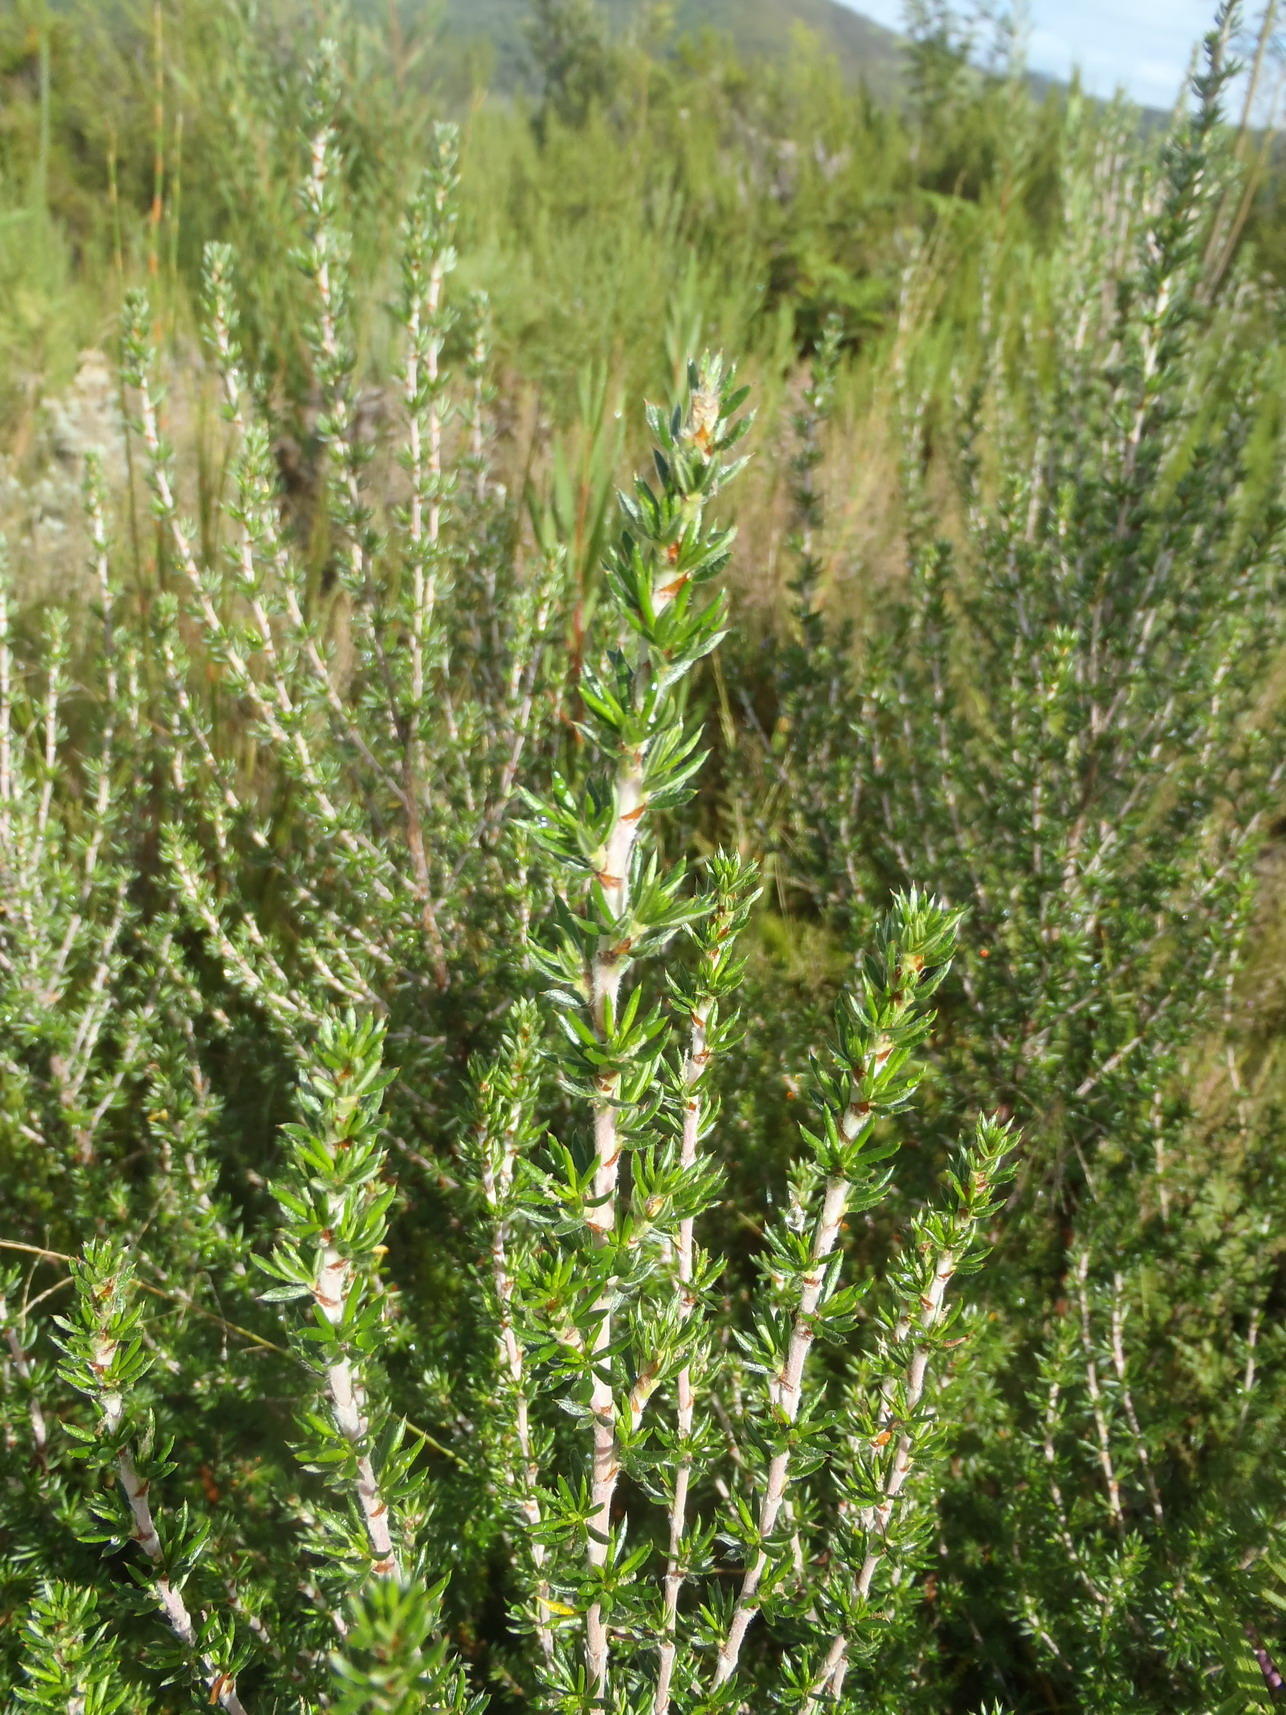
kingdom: Plantae
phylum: Tracheophyta
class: Magnoliopsida
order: Rosales
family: Rosaceae
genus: Cliffortia
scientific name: Cliffortia stricta
